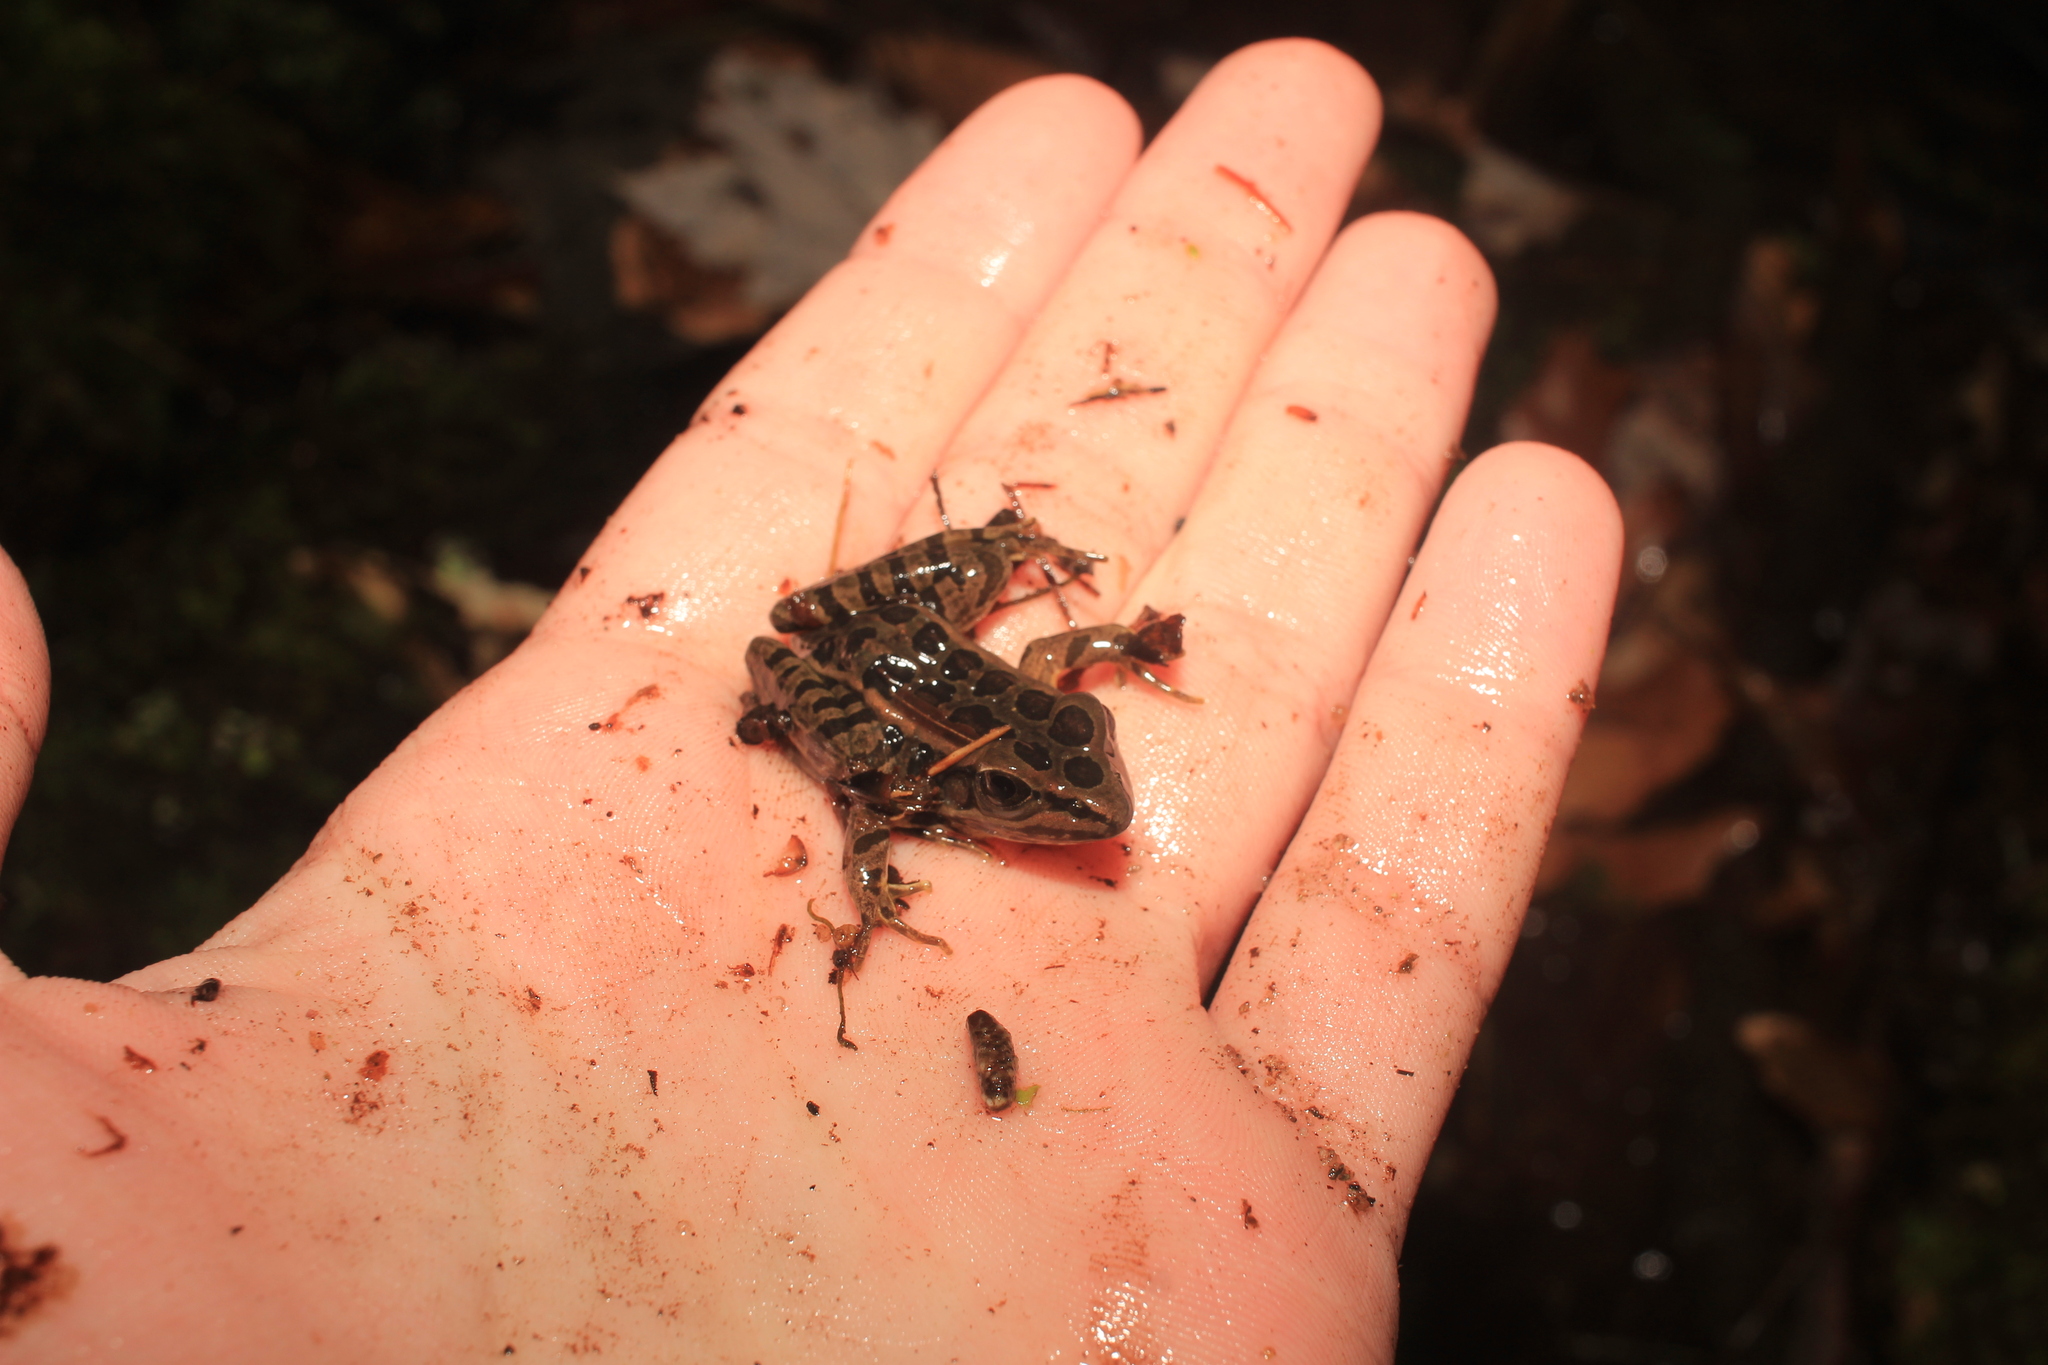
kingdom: Animalia
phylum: Chordata
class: Amphibia
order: Anura
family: Ranidae
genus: Lithobates
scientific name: Lithobates palustris
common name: Pickerel frog
